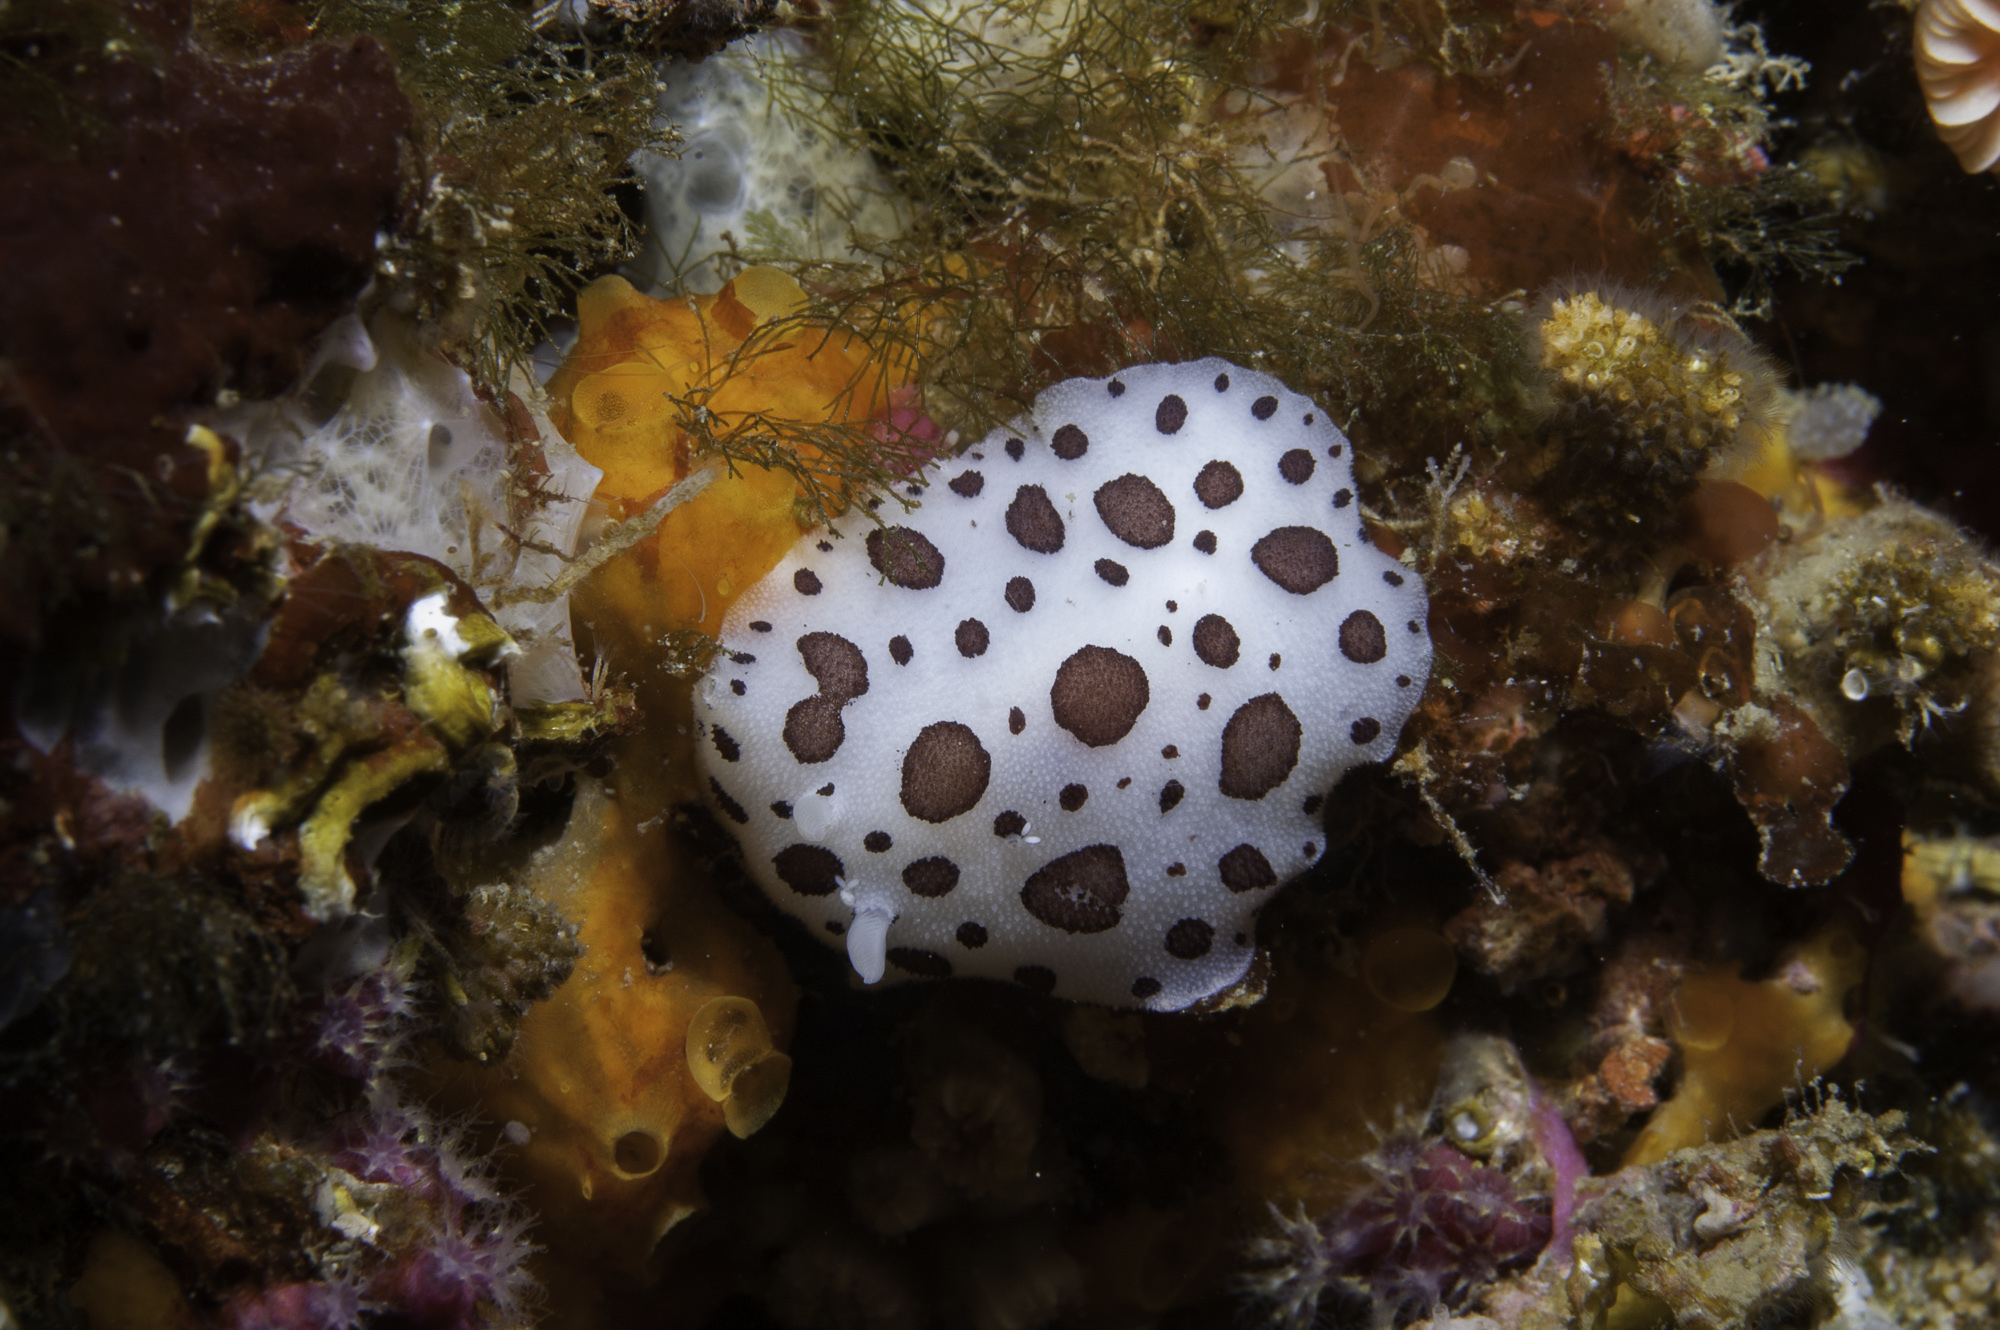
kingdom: Animalia
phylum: Mollusca
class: Gastropoda
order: Nudibranchia
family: Discodorididae
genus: Peltodoris
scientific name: Peltodoris atromaculata
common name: Swiss cow nudibranch
